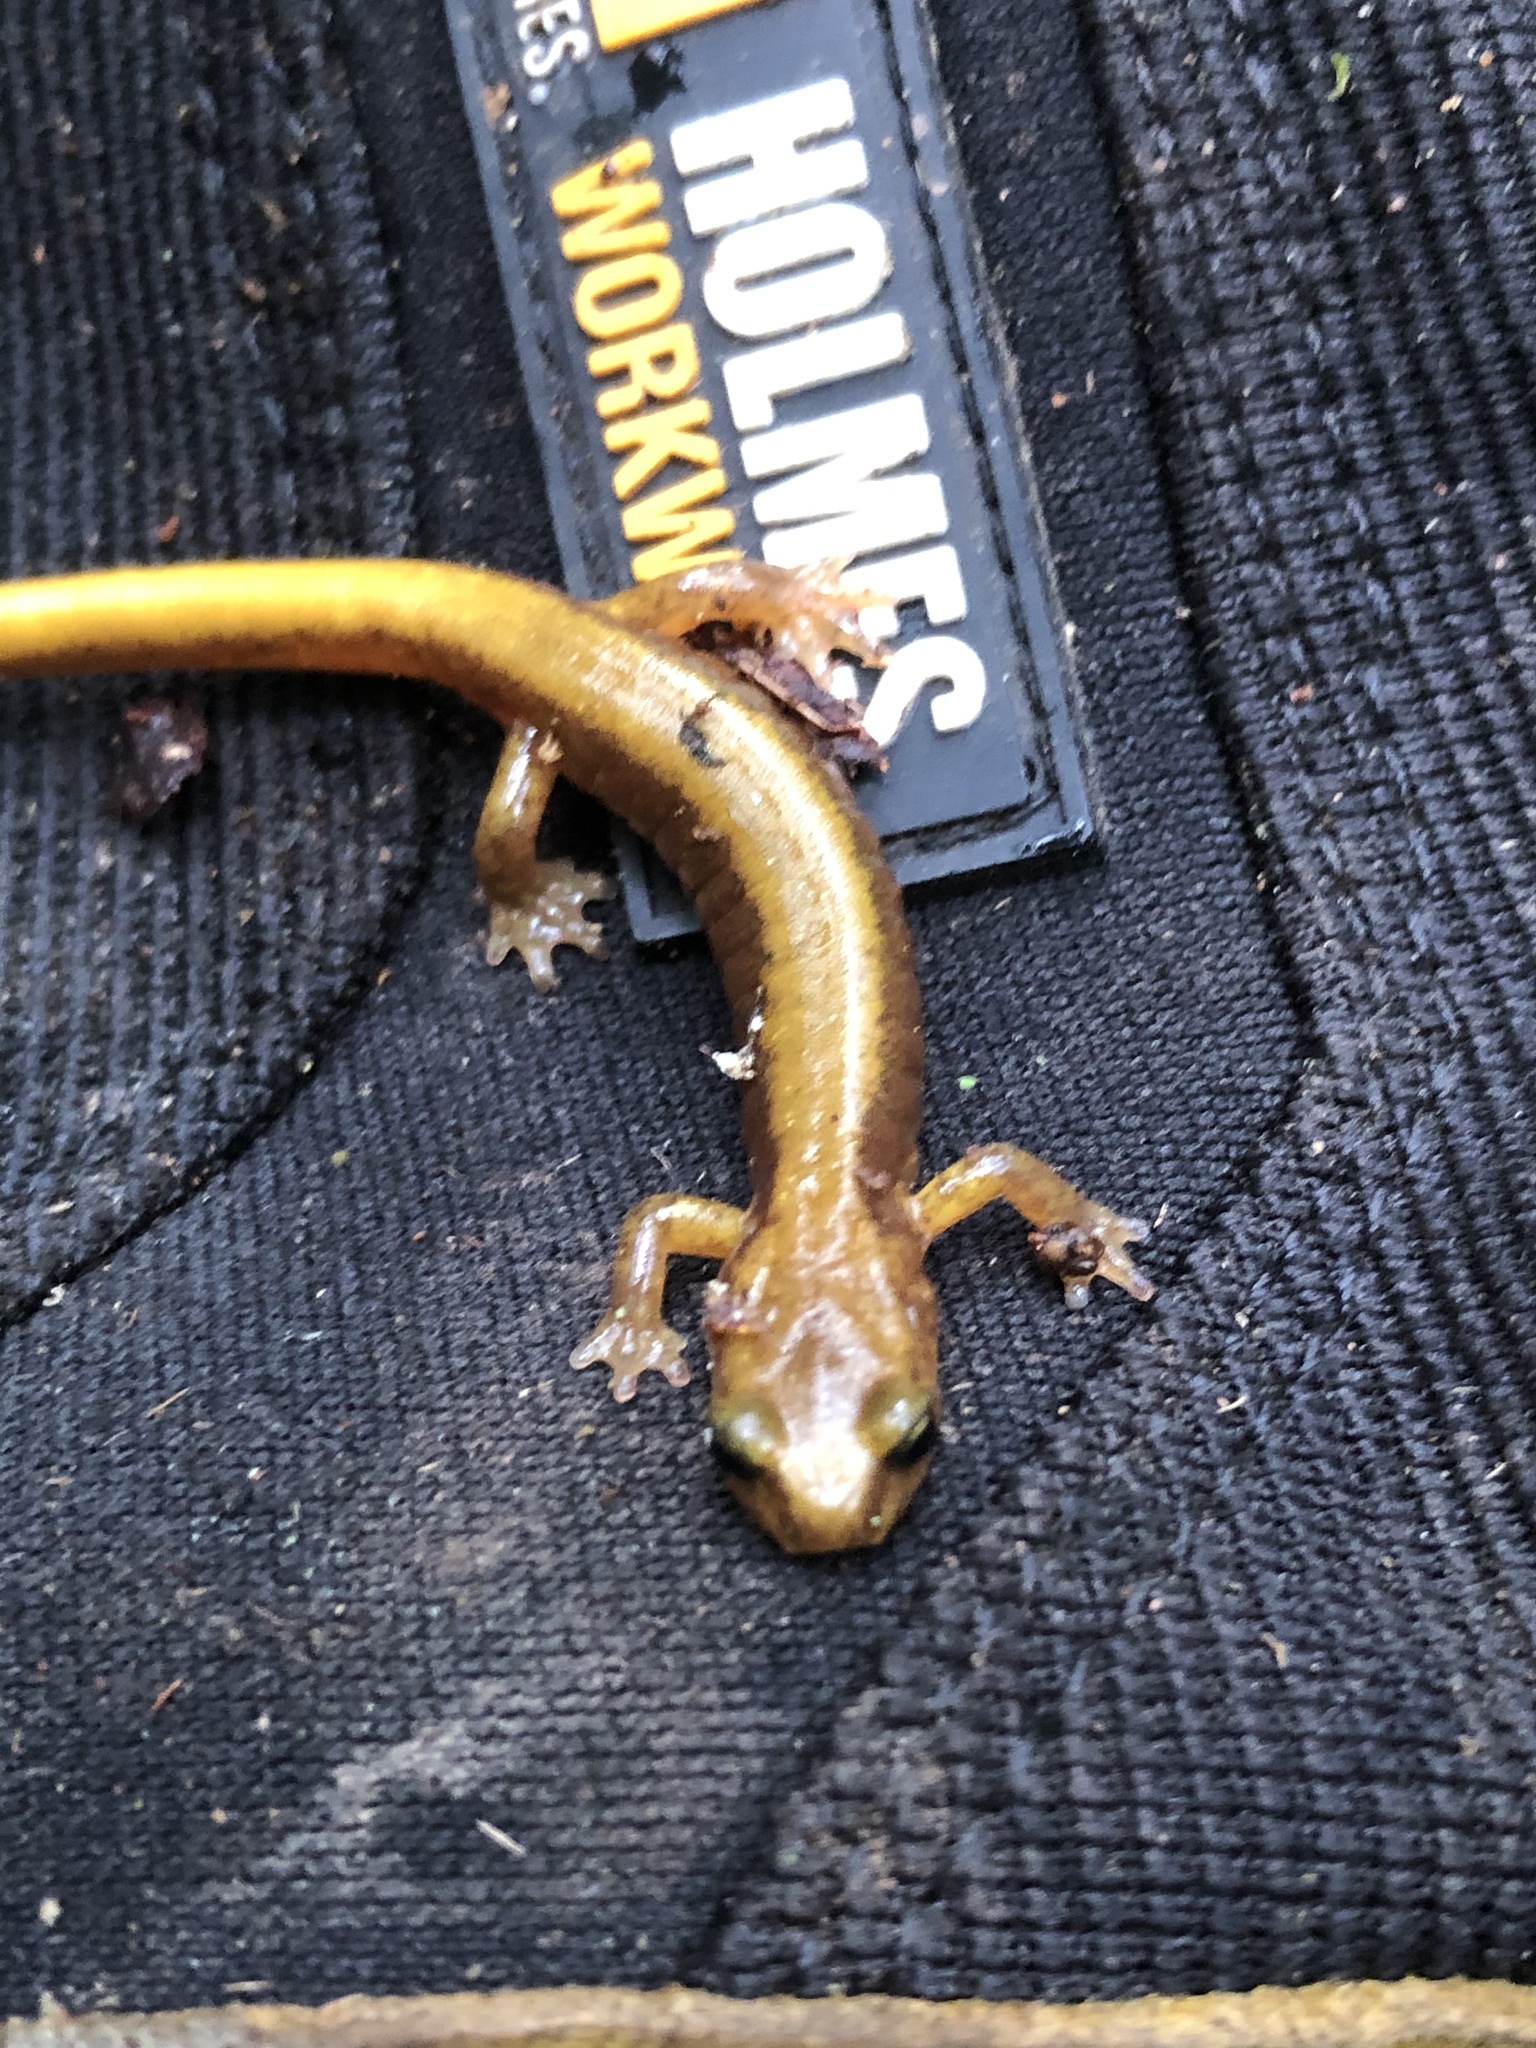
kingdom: Animalia
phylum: Chordata
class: Amphibia
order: Caudata
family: Plethodontidae
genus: Plethodon
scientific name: Plethodon vandykei
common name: Van dyke's salamander
